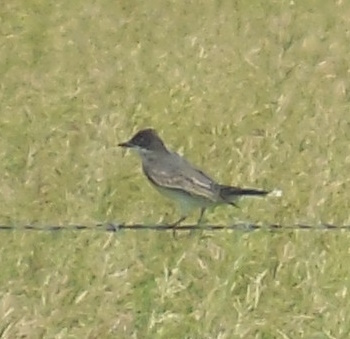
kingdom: Animalia
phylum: Chordata
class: Aves
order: Passeriformes
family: Tyrannidae
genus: Tyrannus
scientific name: Tyrannus tyrannus
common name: Eastern kingbird
